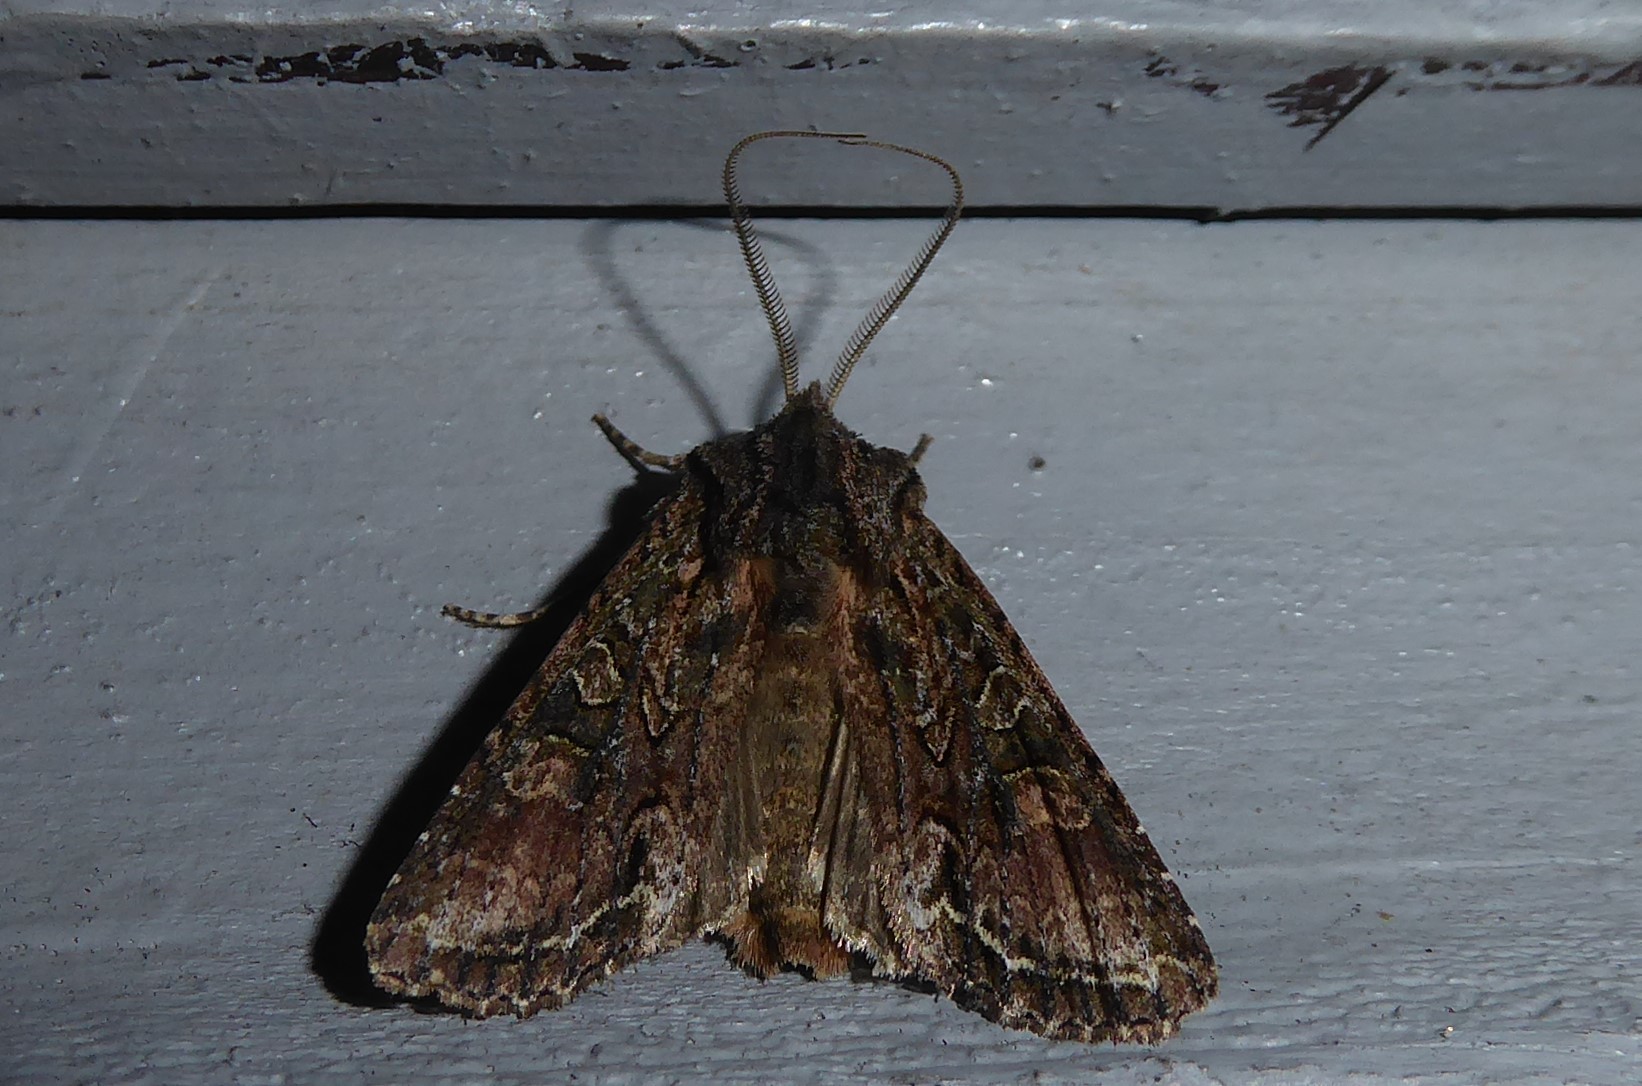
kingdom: Animalia
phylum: Arthropoda
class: Insecta
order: Lepidoptera
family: Noctuidae
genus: Ichneutica
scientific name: Ichneutica mutans
